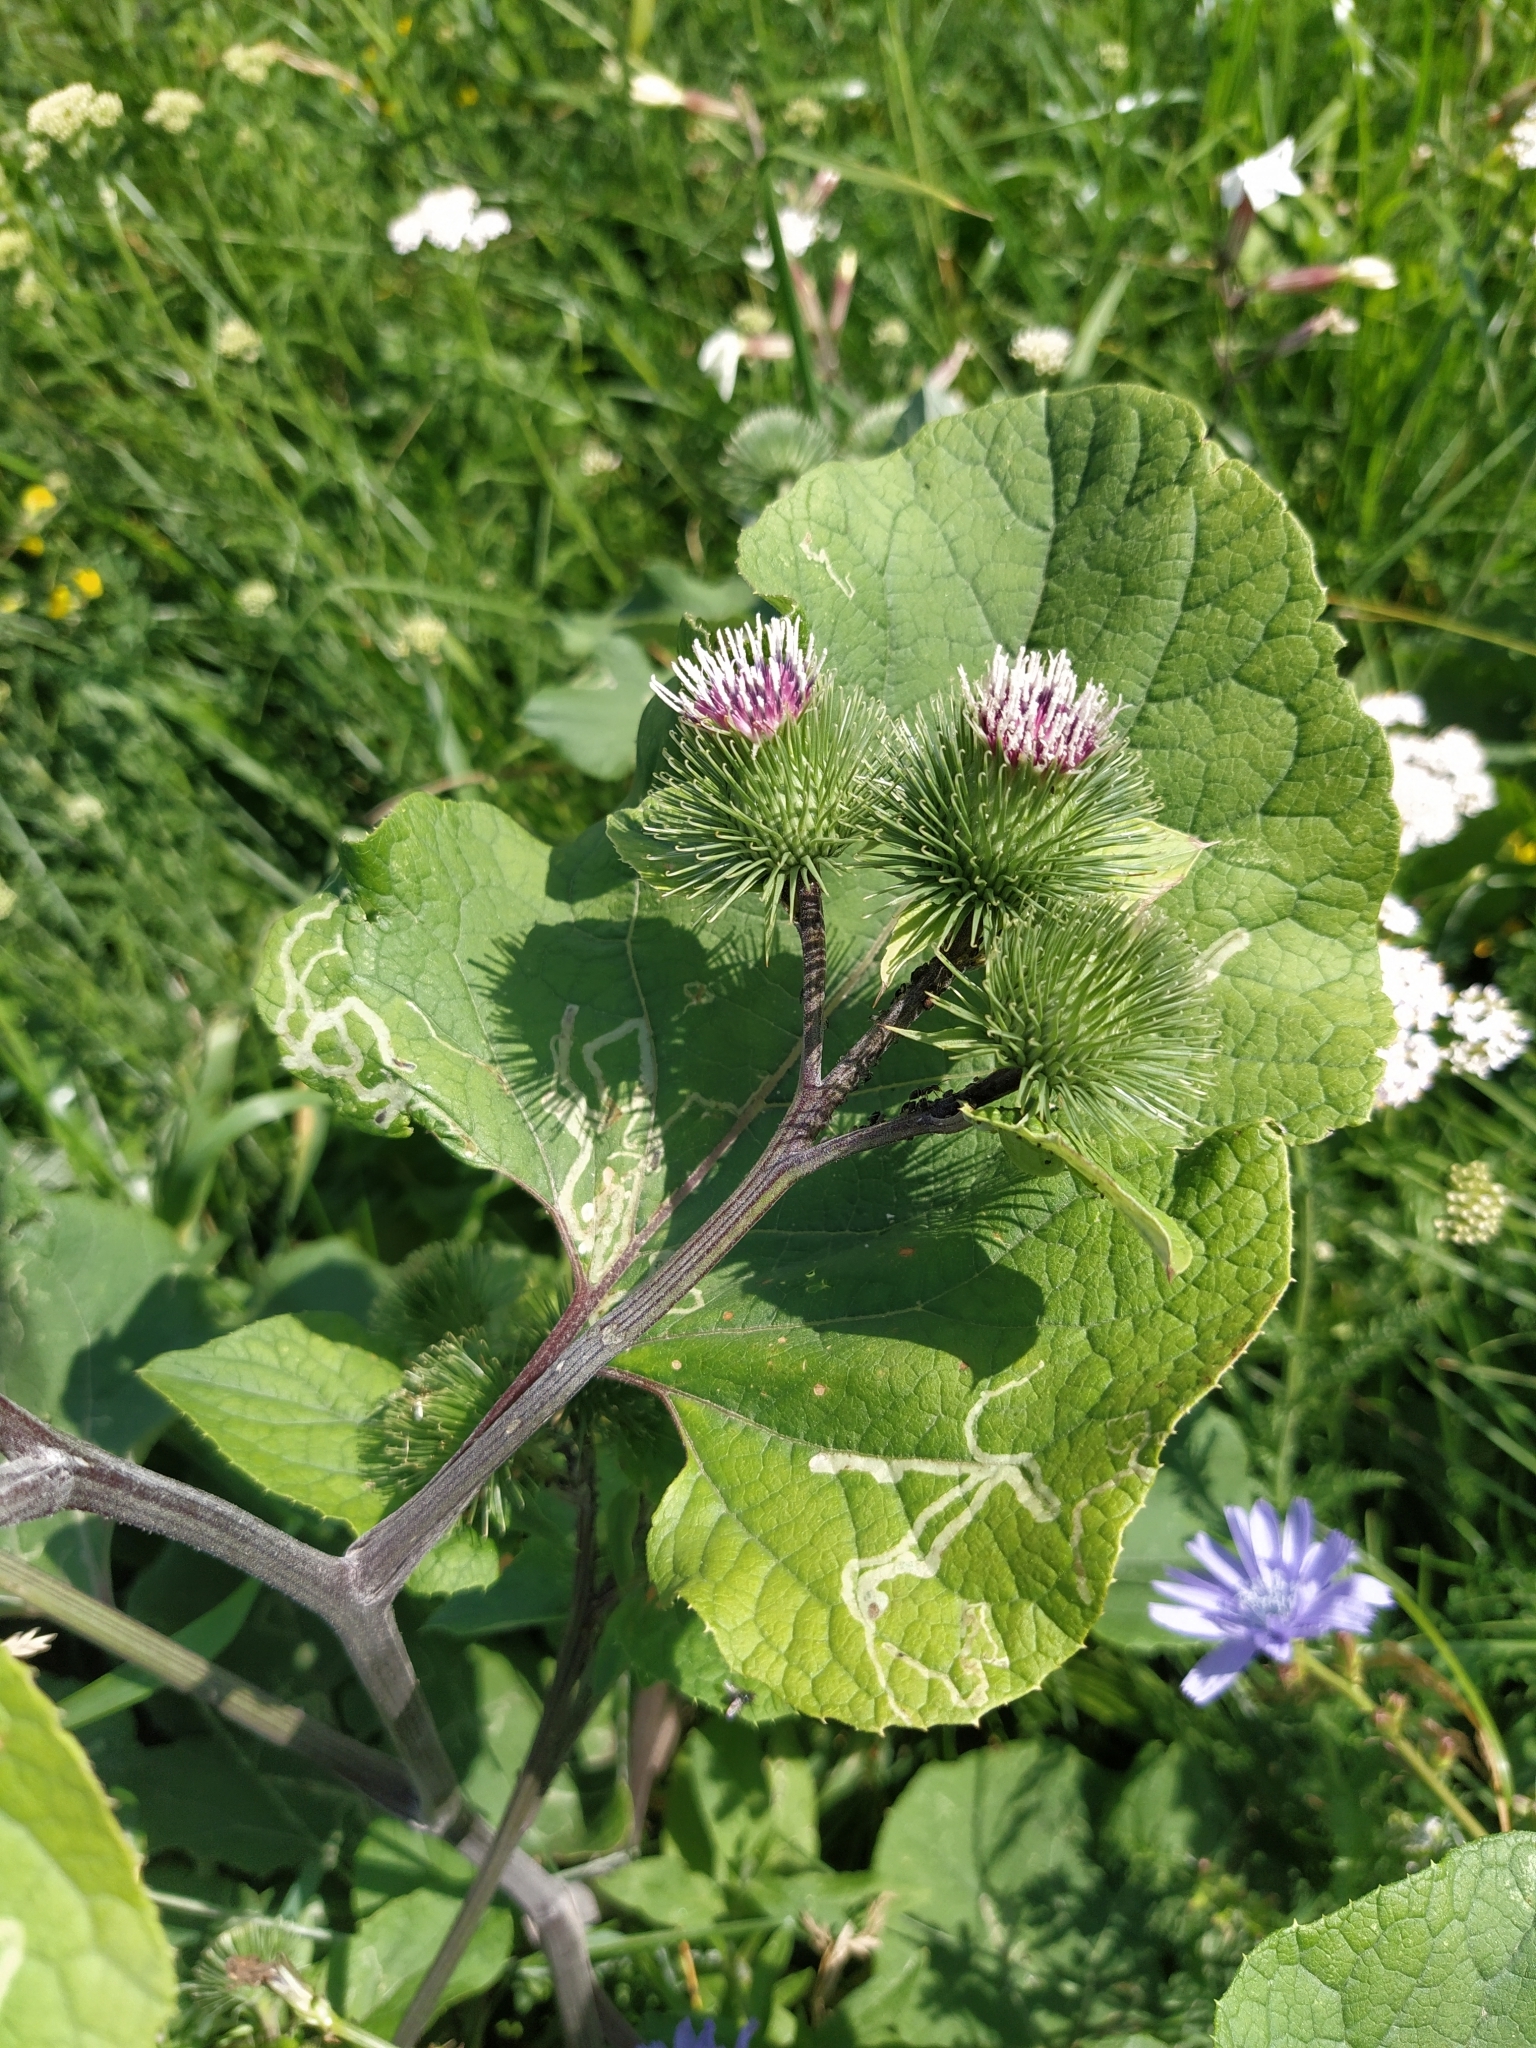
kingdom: Plantae
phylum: Tracheophyta
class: Magnoliopsida
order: Asterales
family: Asteraceae
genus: Arctium
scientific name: Arctium lappa
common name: Greater burdock
